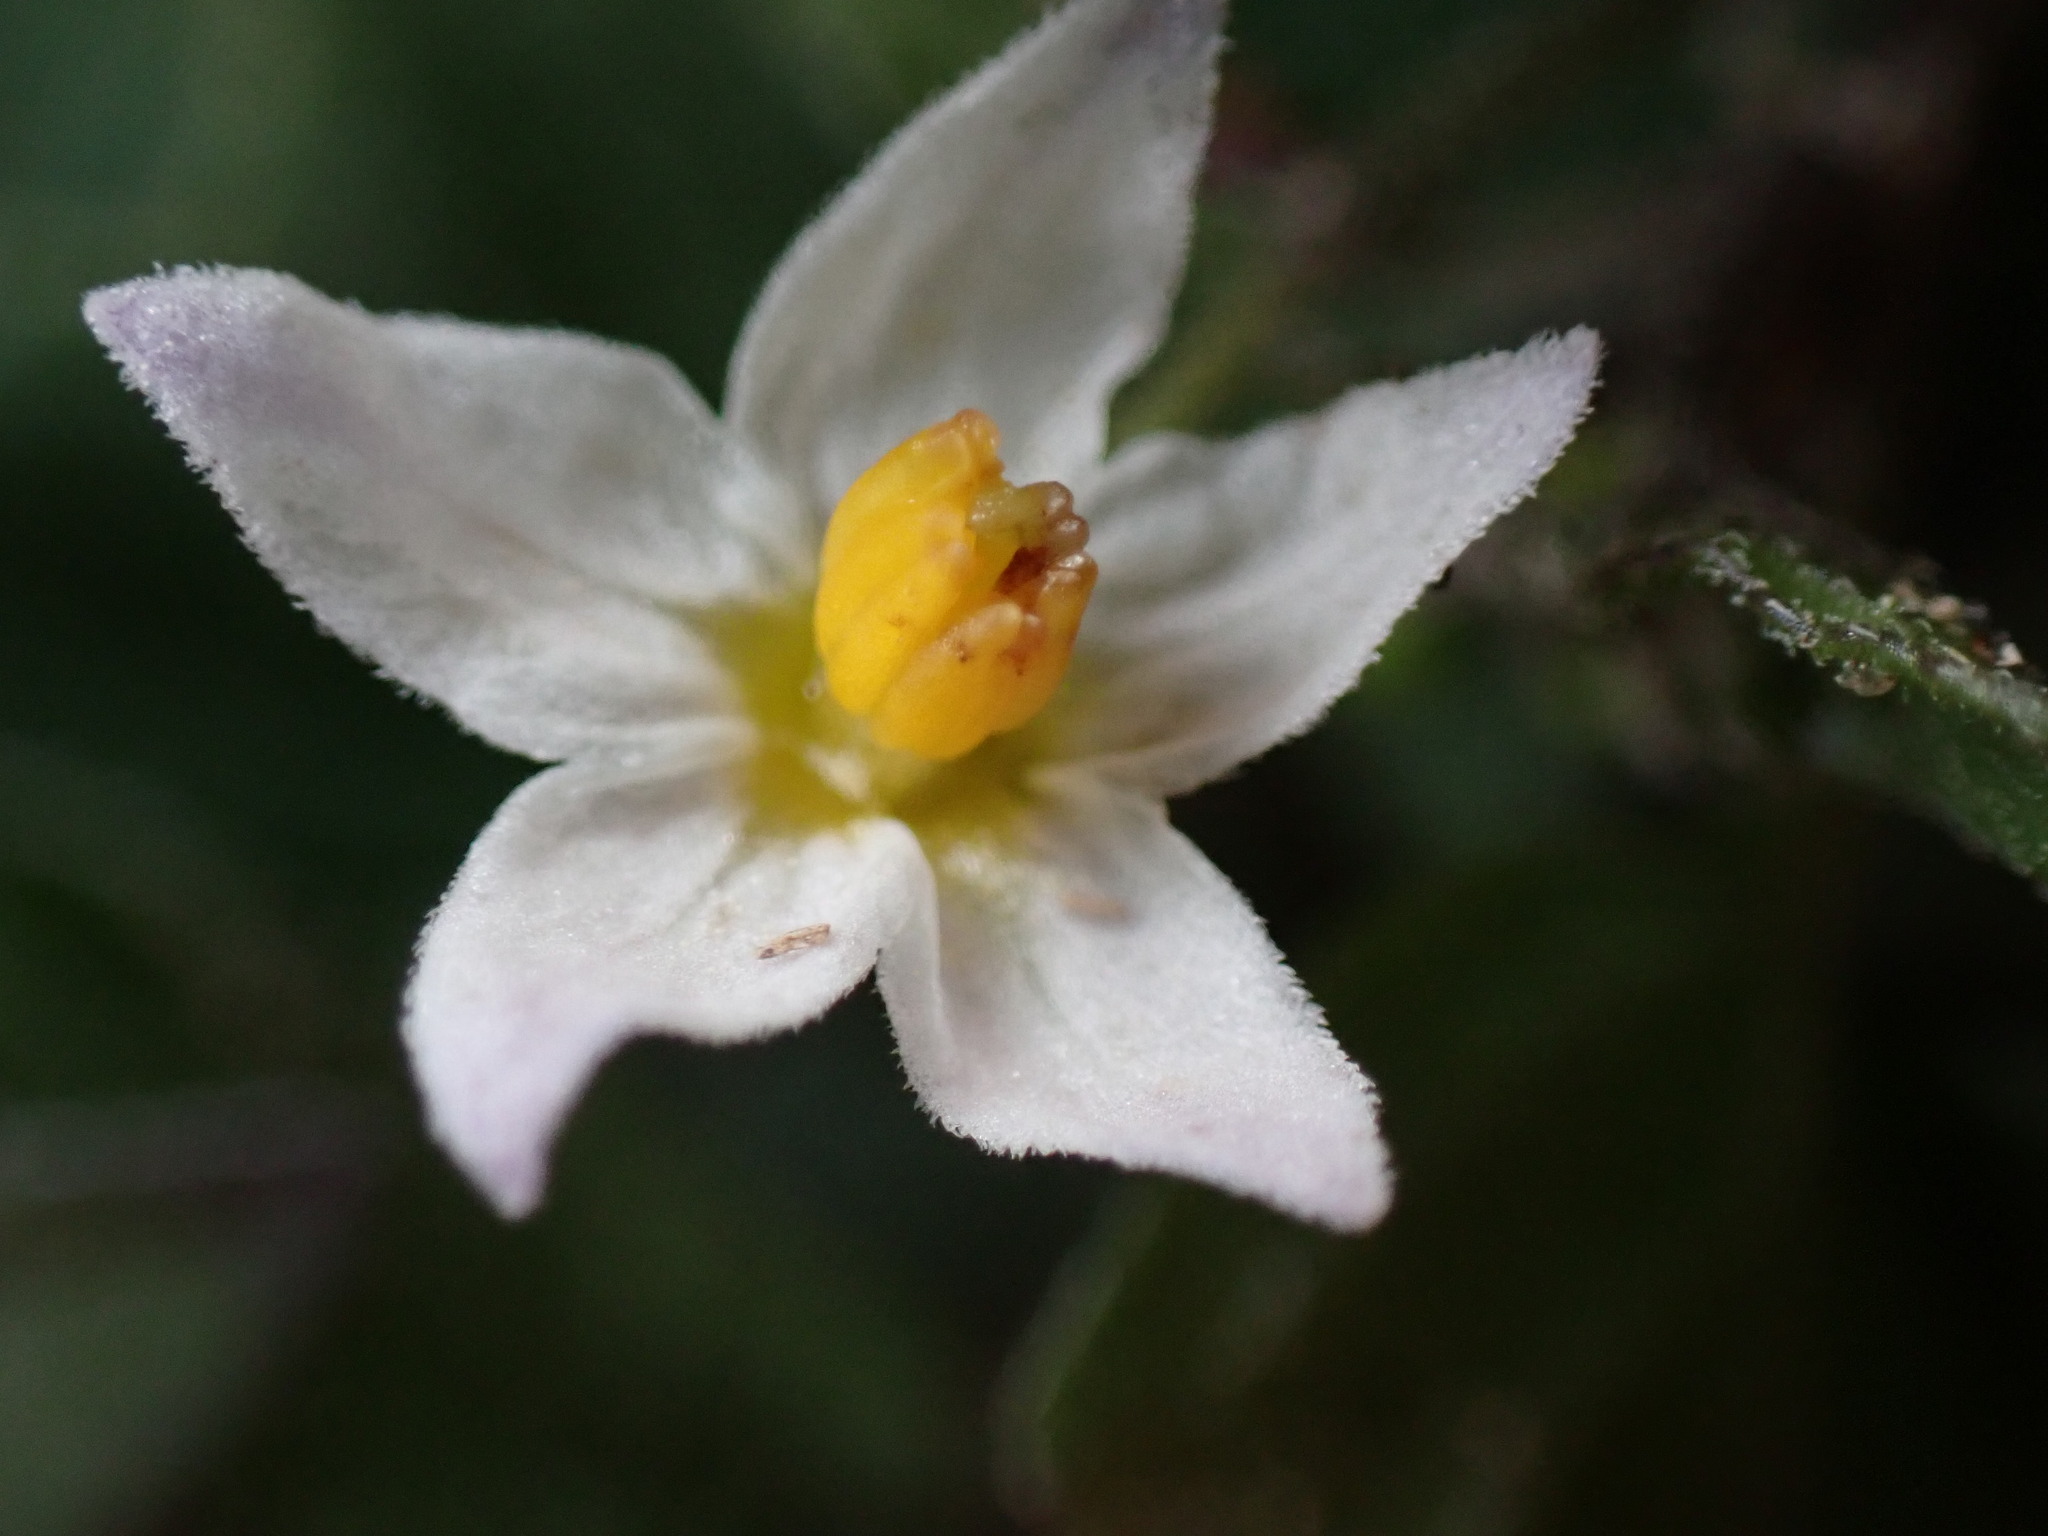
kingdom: Plantae
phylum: Tracheophyta
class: Magnoliopsida
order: Solanales
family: Solanaceae
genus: Solanum
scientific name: Solanum nigrum
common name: Black nightshade
